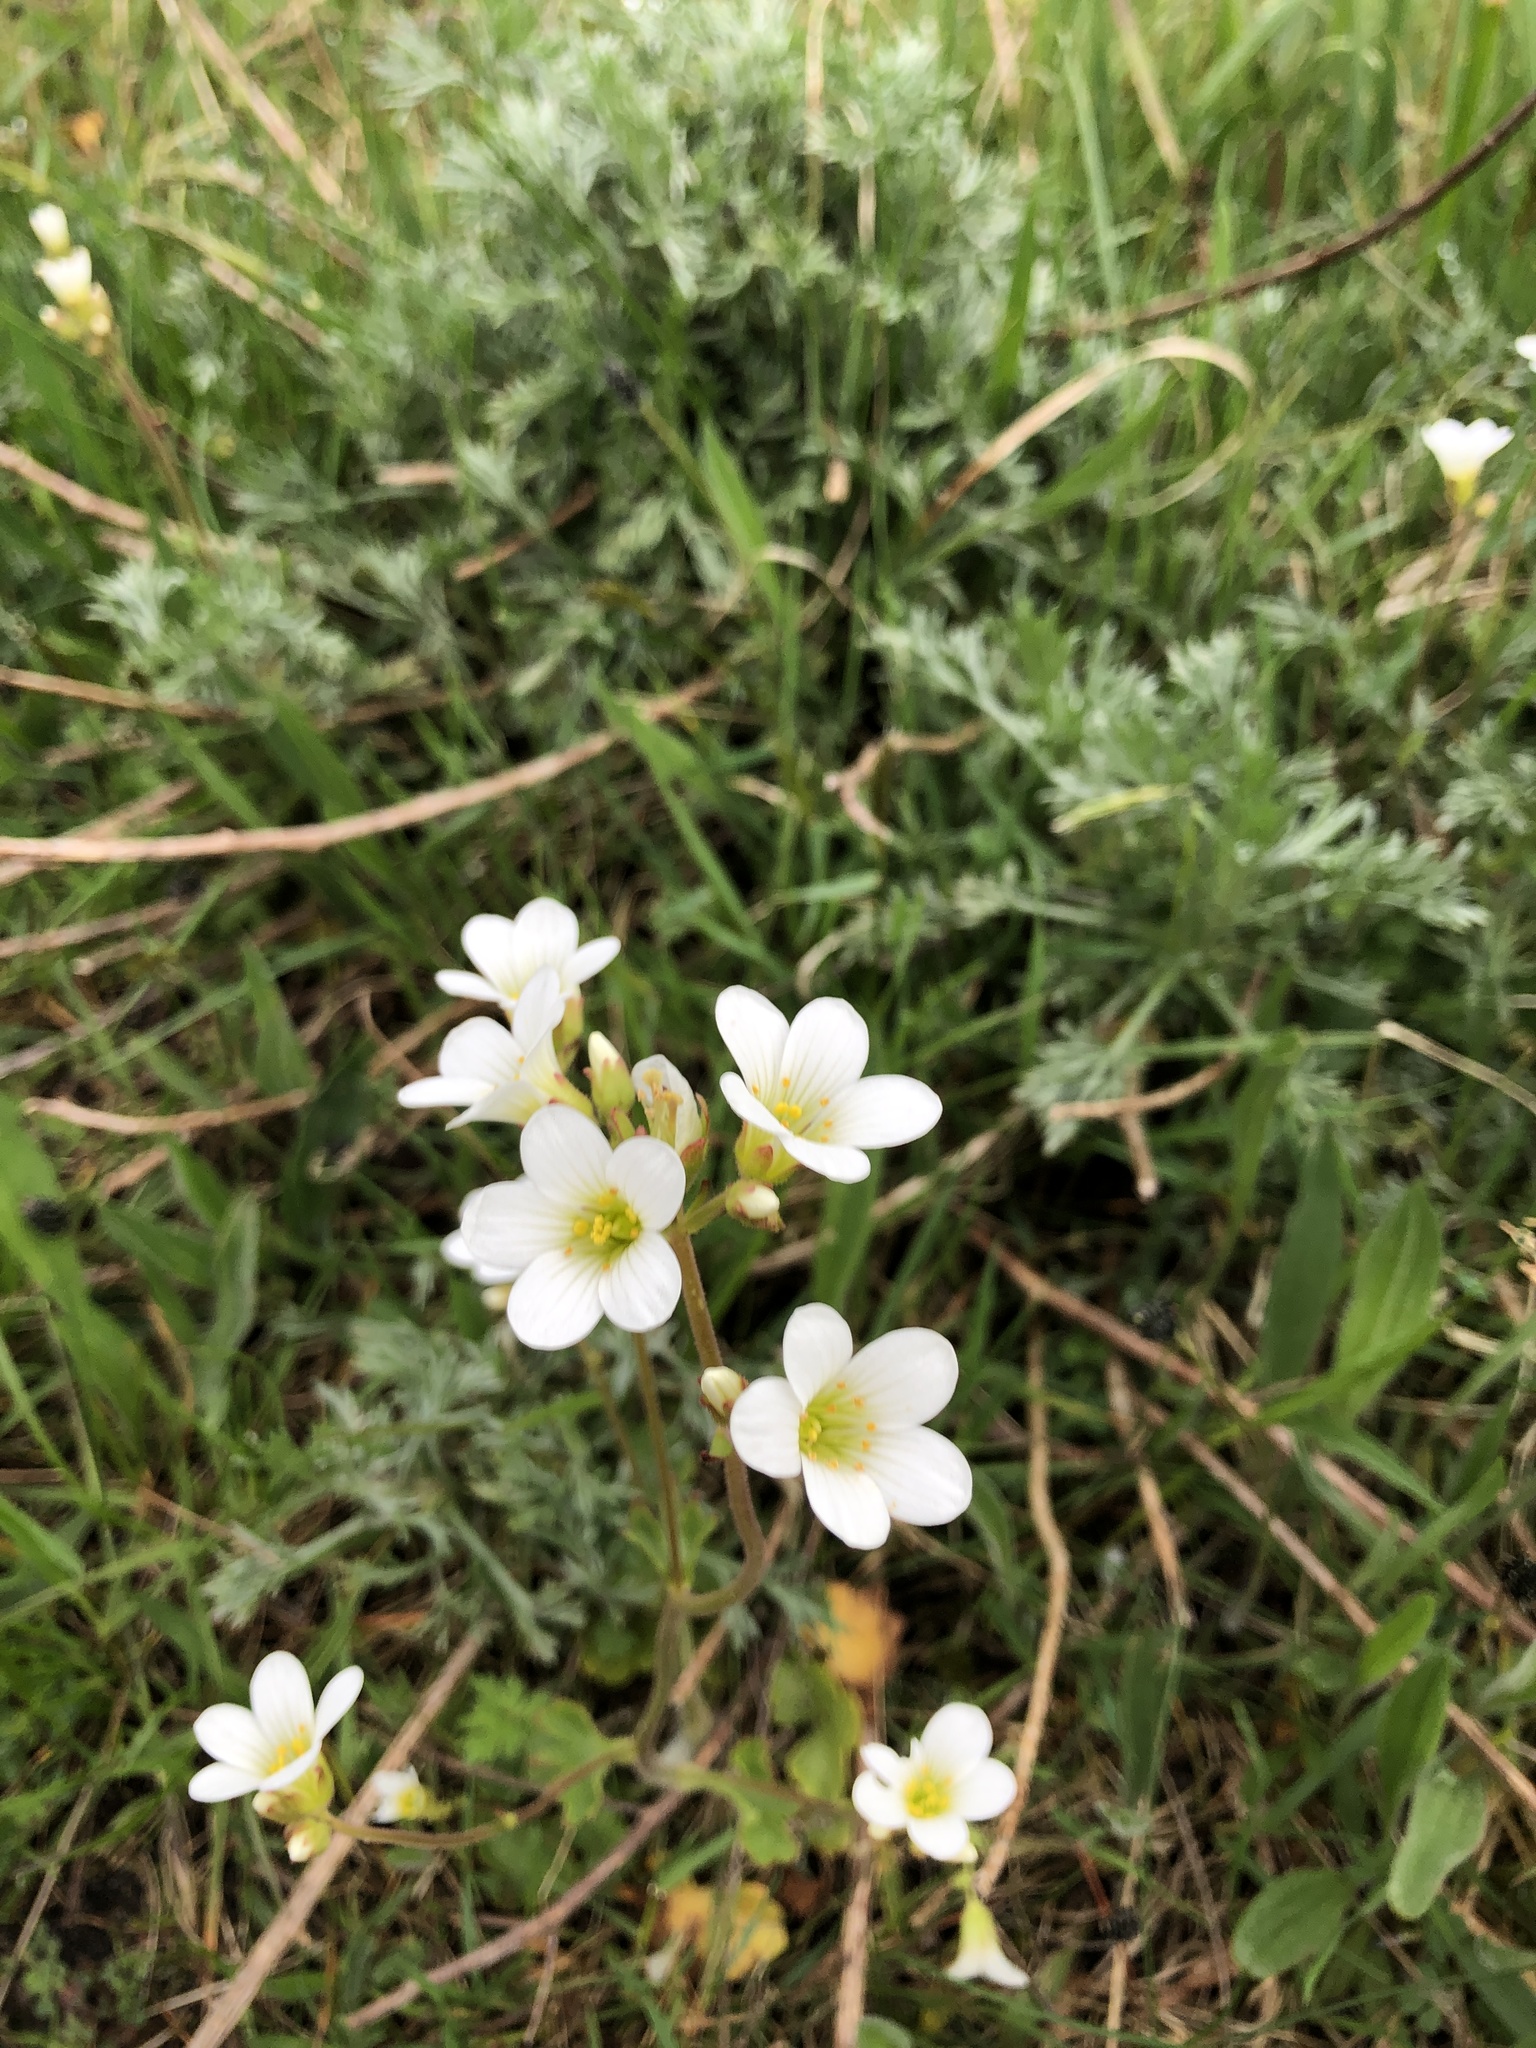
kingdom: Plantae
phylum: Tracheophyta
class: Magnoliopsida
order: Saxifragales
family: Saxifragaceae
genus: Saxifraga
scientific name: Saxifraga granulata
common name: Meadow saxifrage
